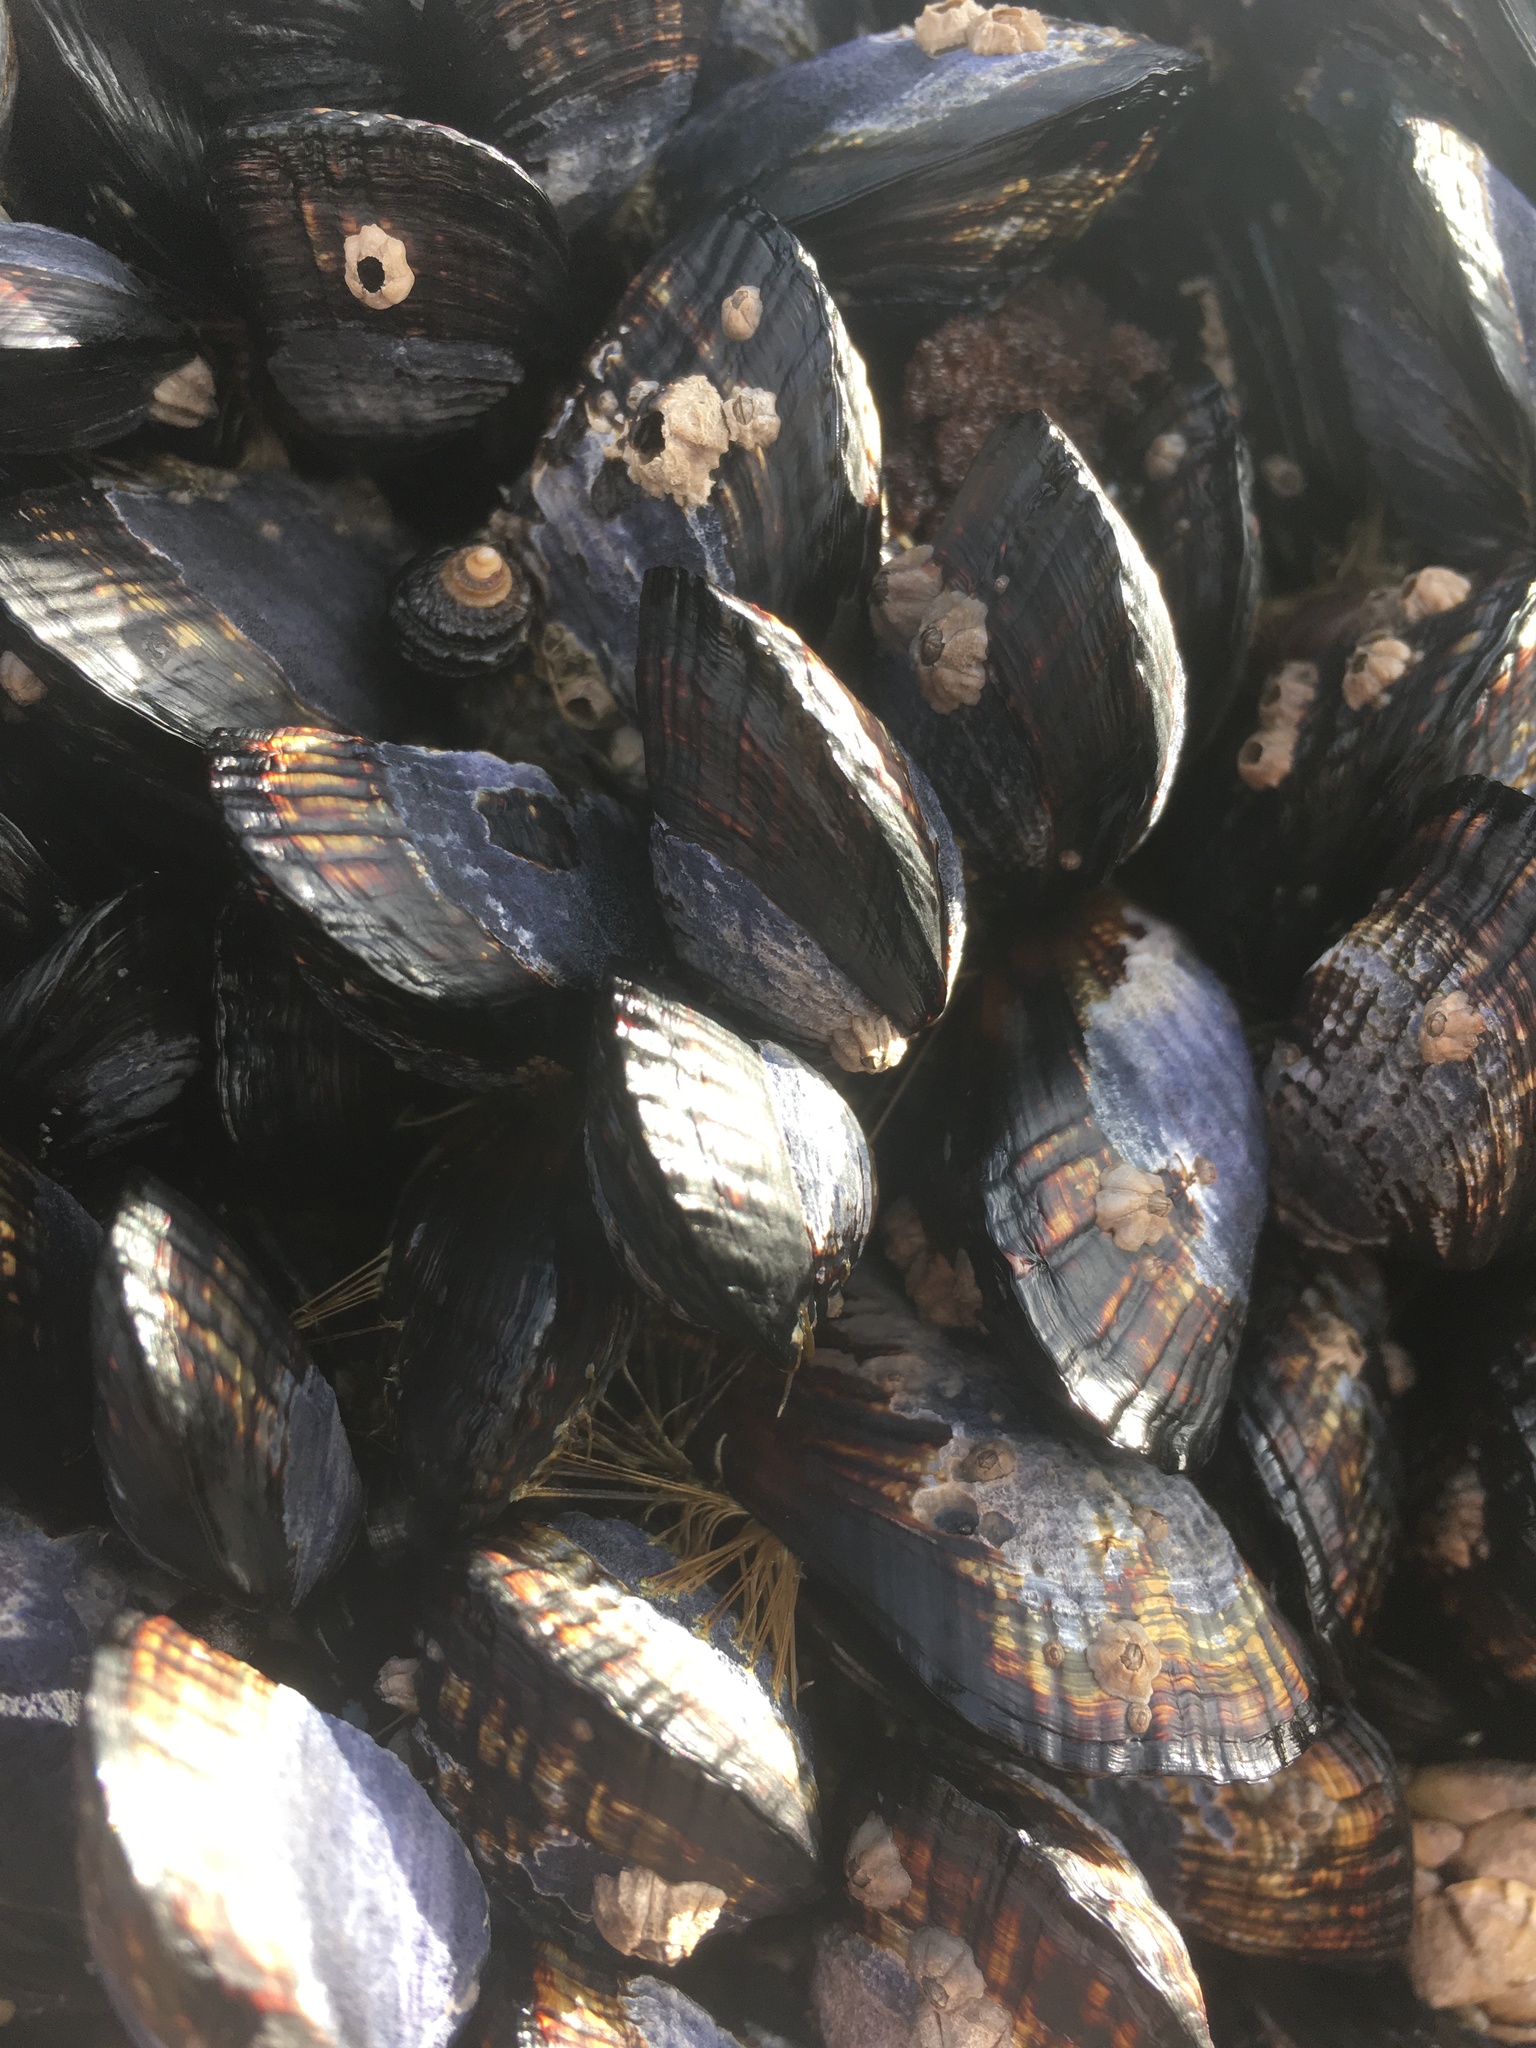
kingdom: Animalia
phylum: Mollusca
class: Bivalvia
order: Mytilida
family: Mytilidae
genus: Mytilus
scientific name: Mytilus californianus
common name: California mussel
